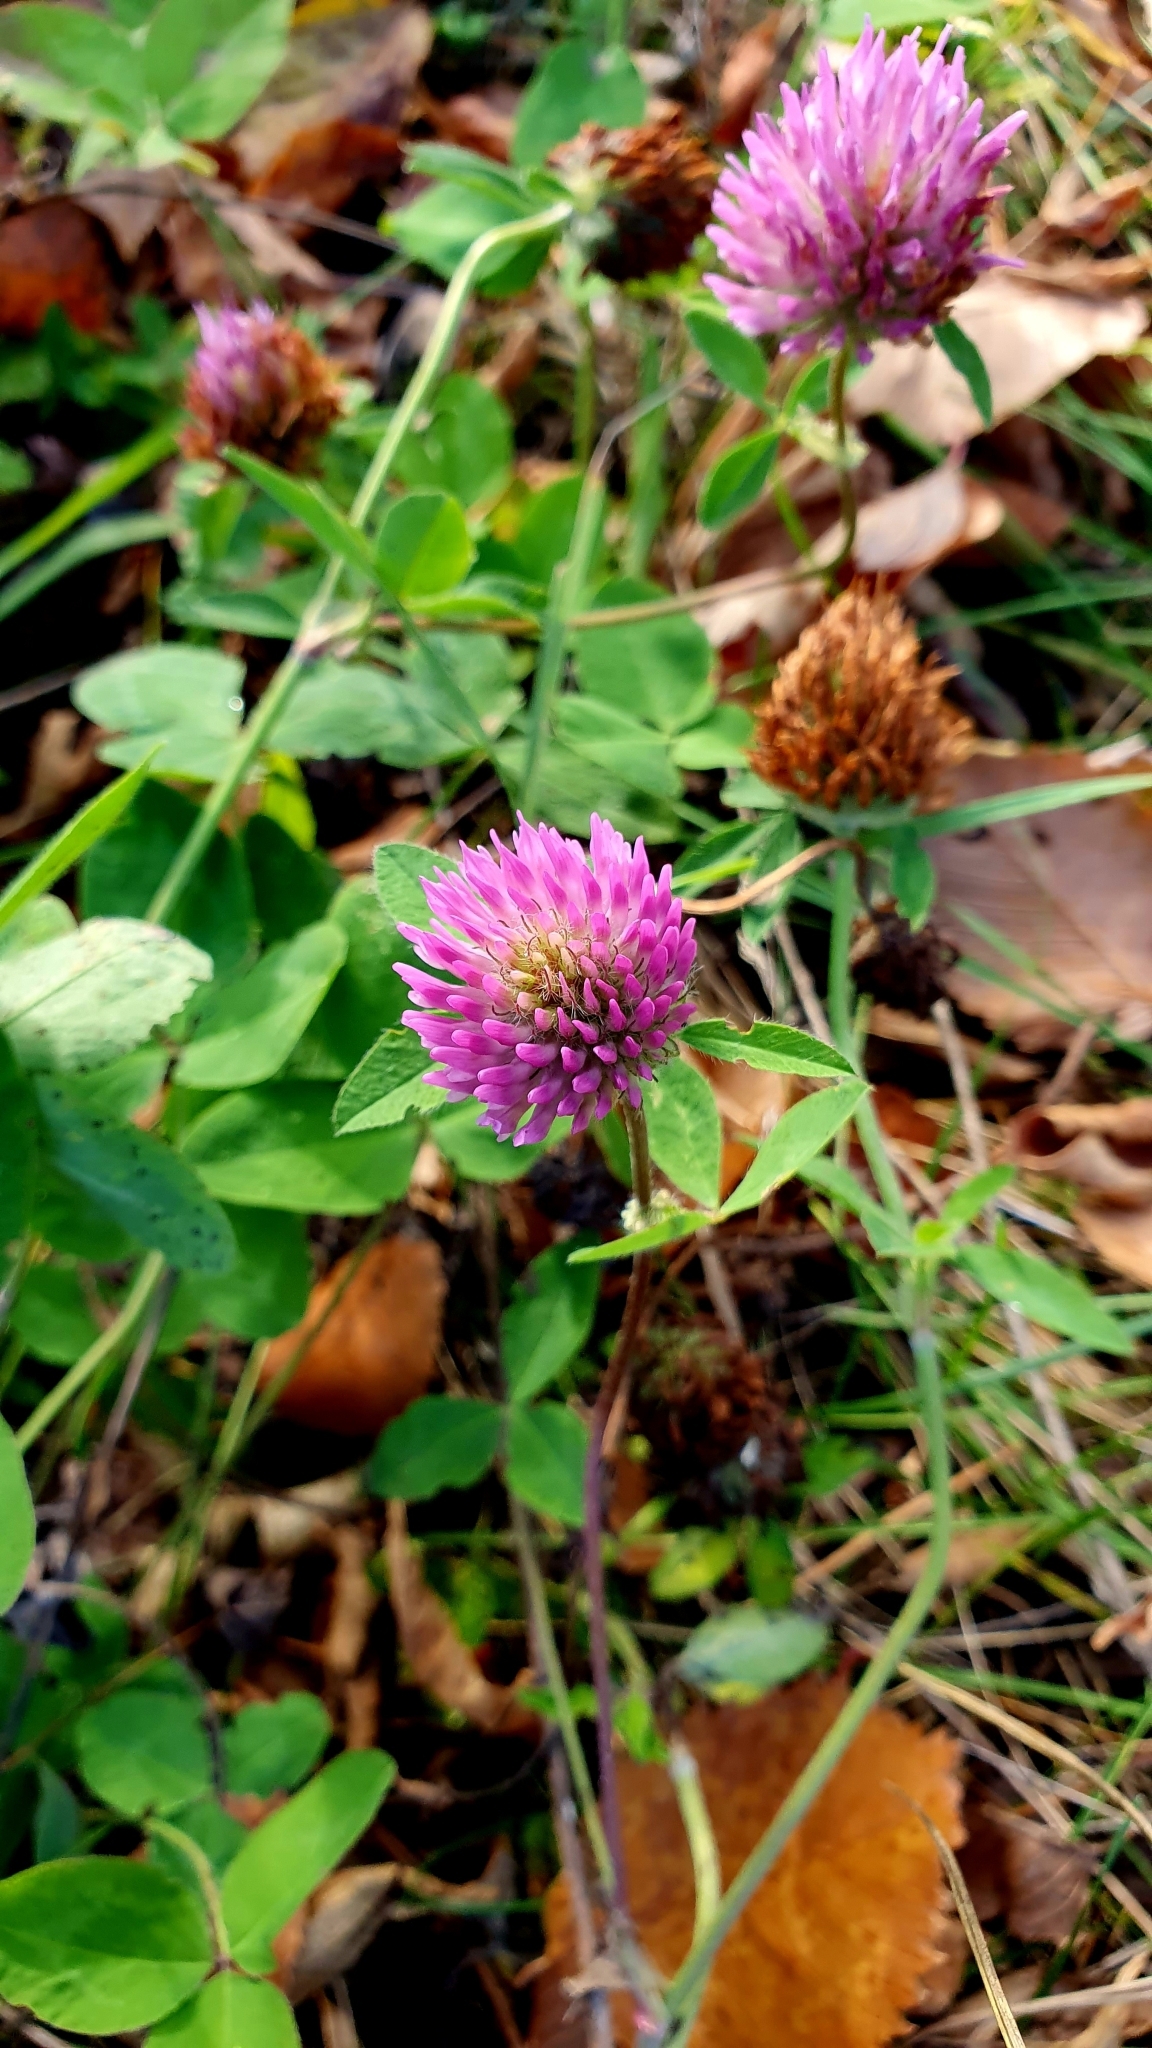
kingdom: Plantae
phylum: Tracheophyta
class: Magnoliopsida
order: Fabales
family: Fabaceae
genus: Trifolium
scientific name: Trifolium pratense
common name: Red clover
